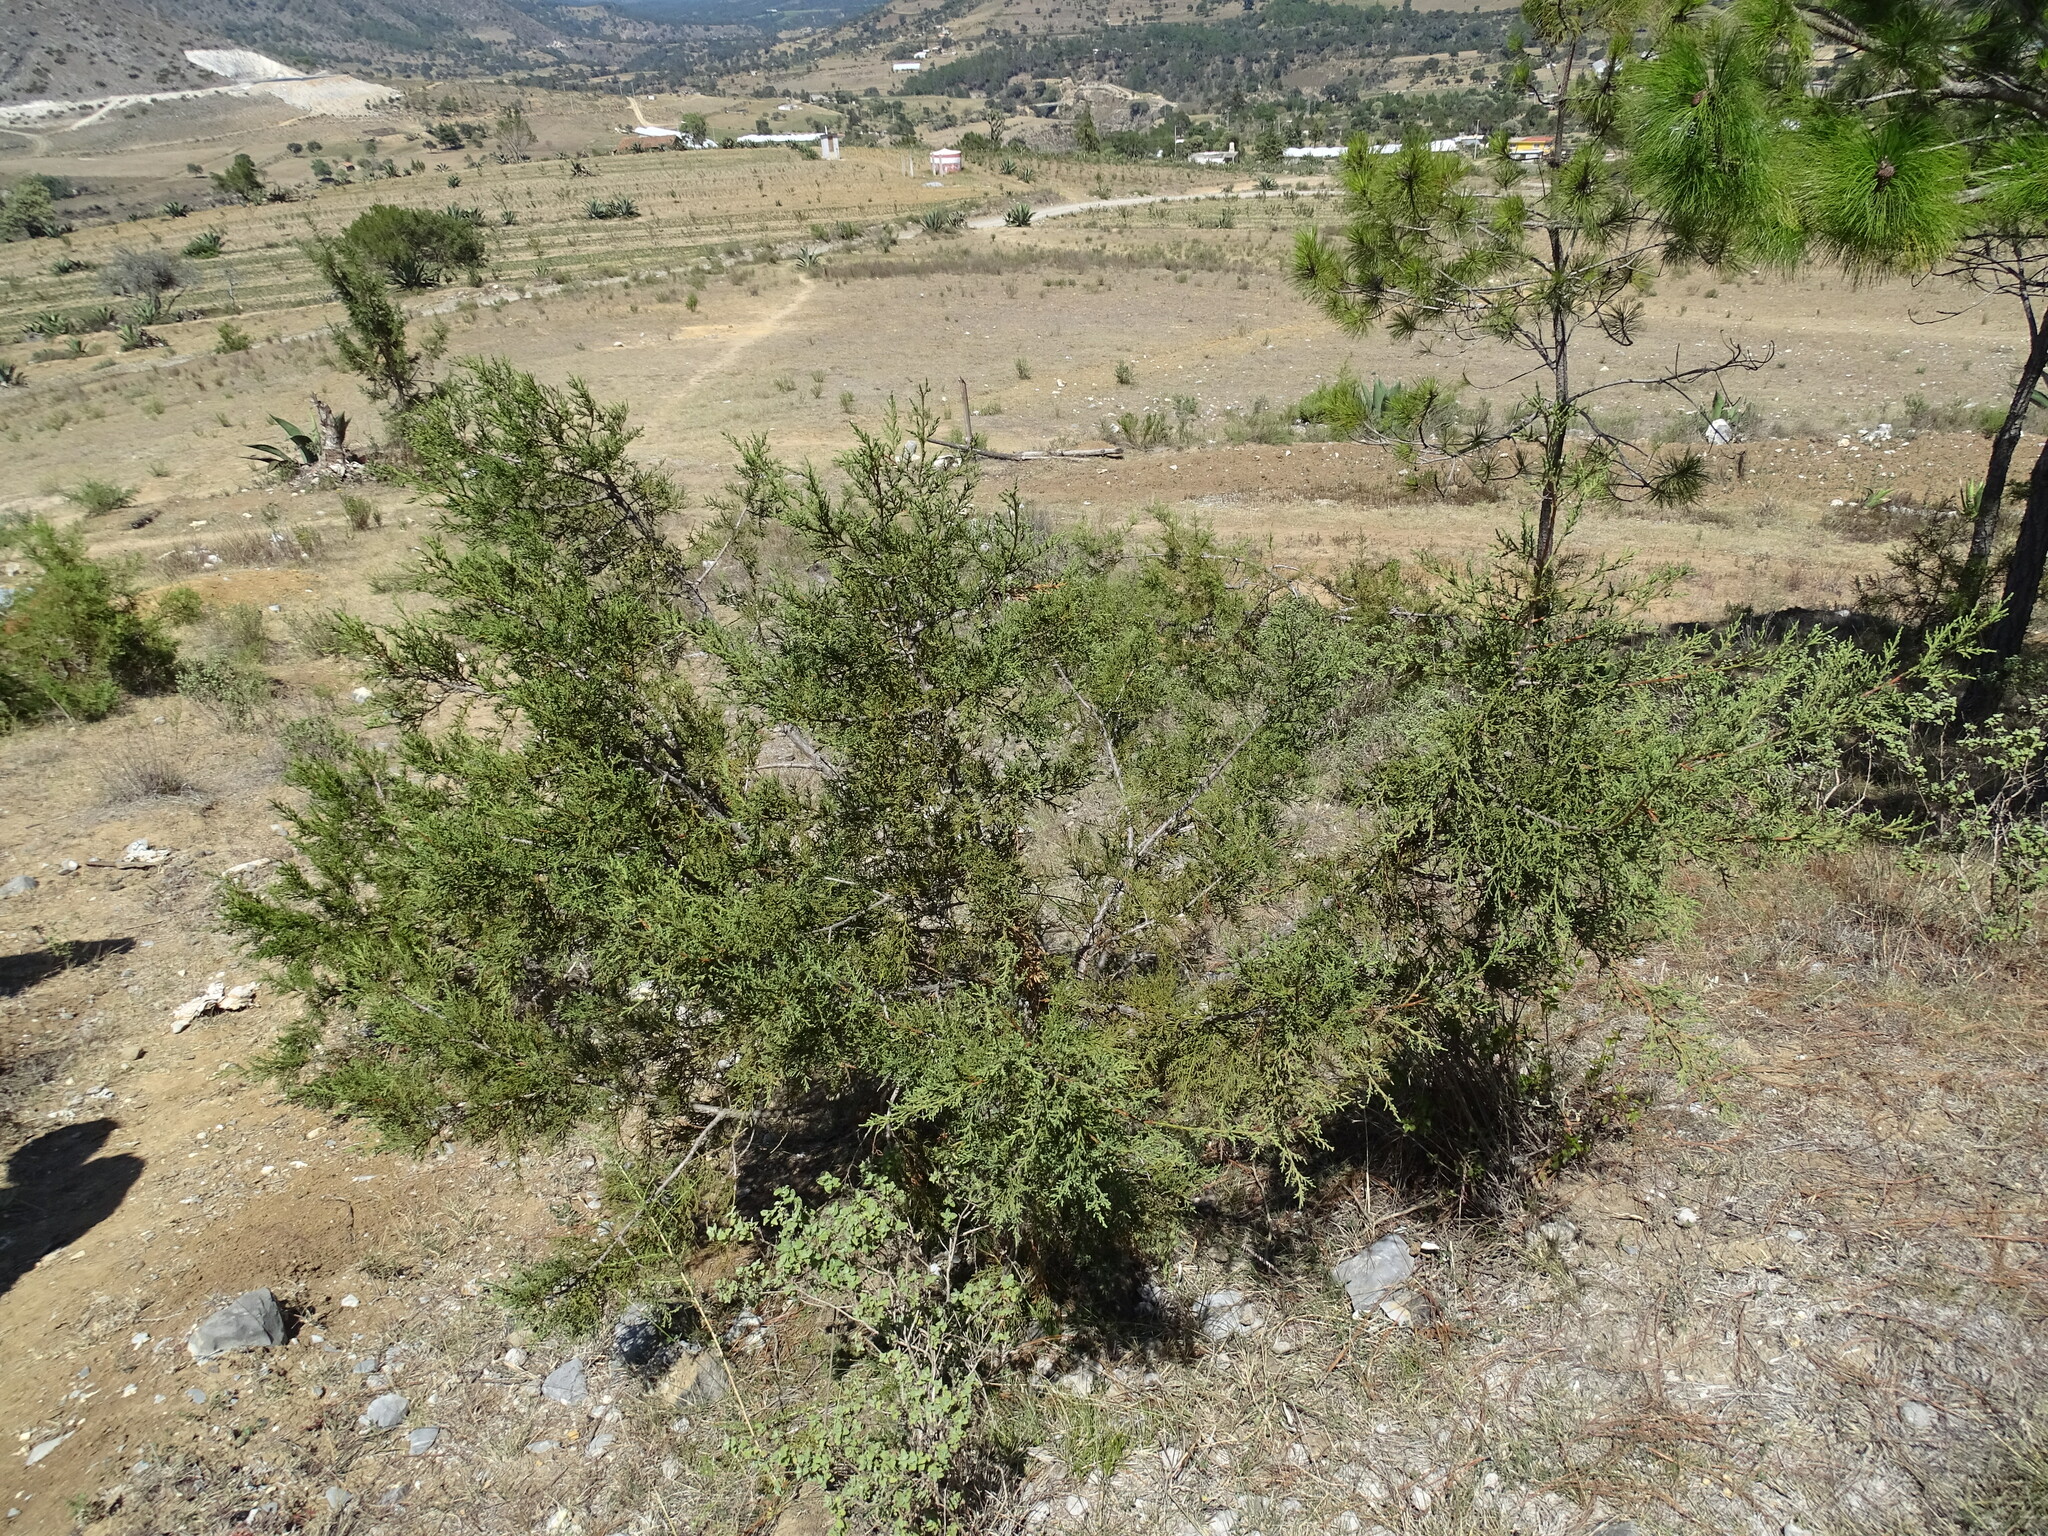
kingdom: Plantae
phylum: Tracheophyta
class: Pinopsida
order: Pinales
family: Cupressaceae
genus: Juniperus
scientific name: Juniperus deppeana
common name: Alligator juniper
